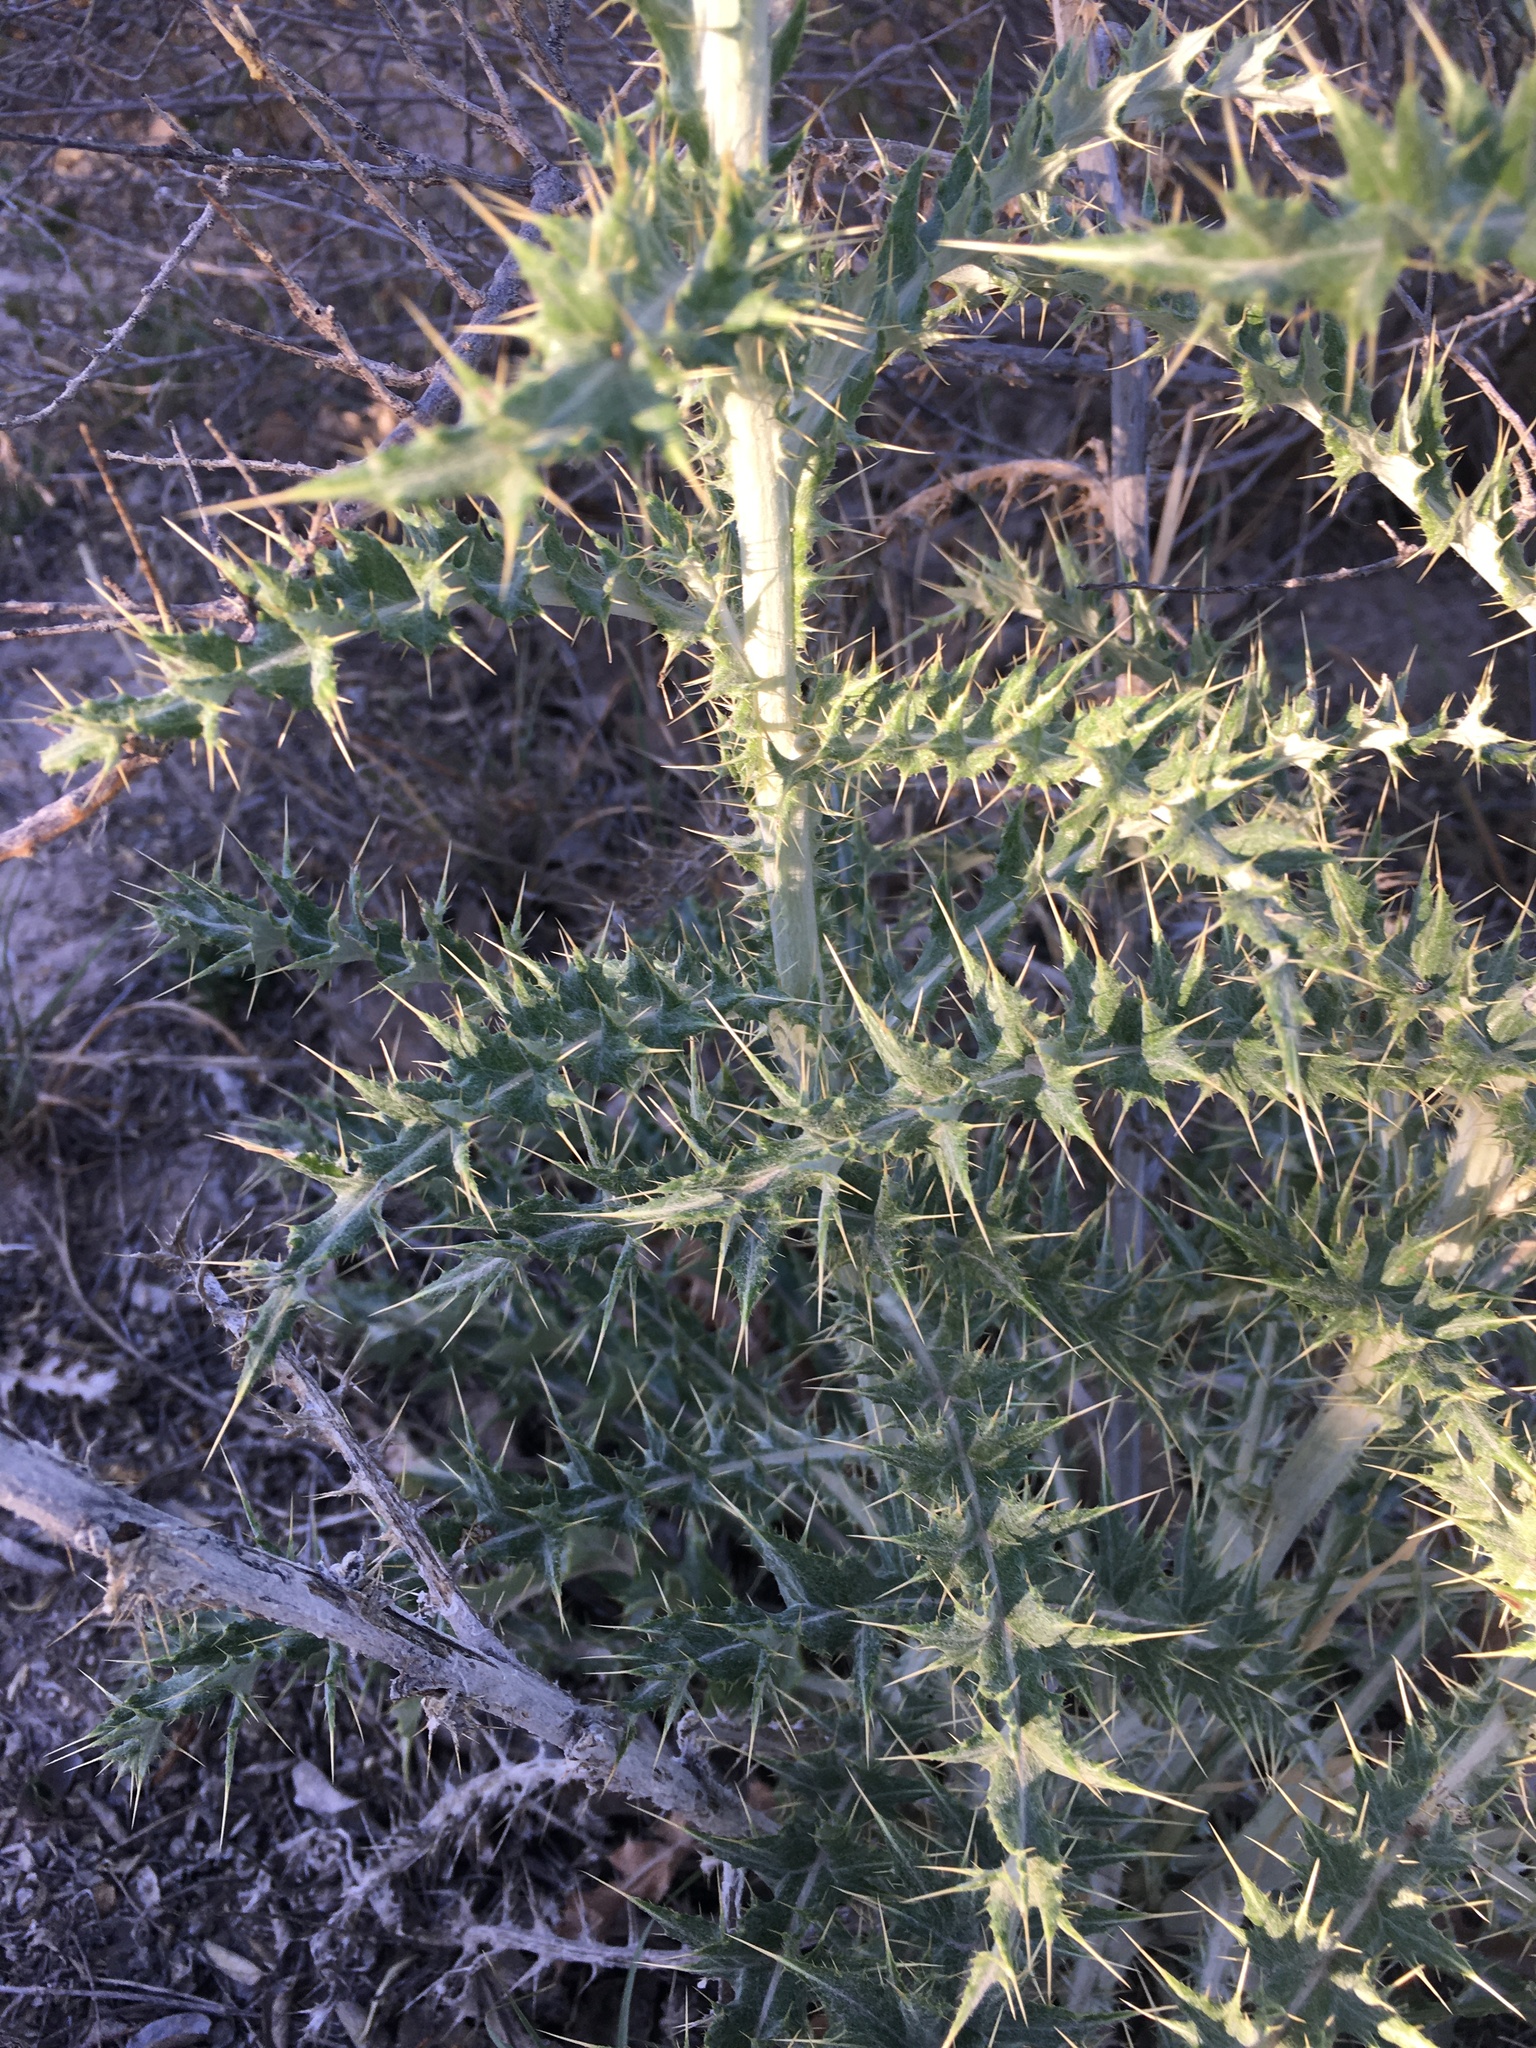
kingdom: Plantae
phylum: Tracheophyta
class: Magnoliopsida
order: Asterales
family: Asteraceae
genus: Cirsium
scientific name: Cirsium ochrocentrum
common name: Yellow-spine thistle
